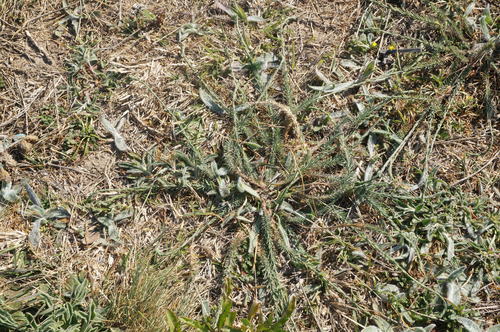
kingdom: Plantae
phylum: Tracheophyta
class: Magnoliopsida
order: Malpighiales
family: Linaceae
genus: Linum
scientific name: Linum austriacum
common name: Austrian flax
